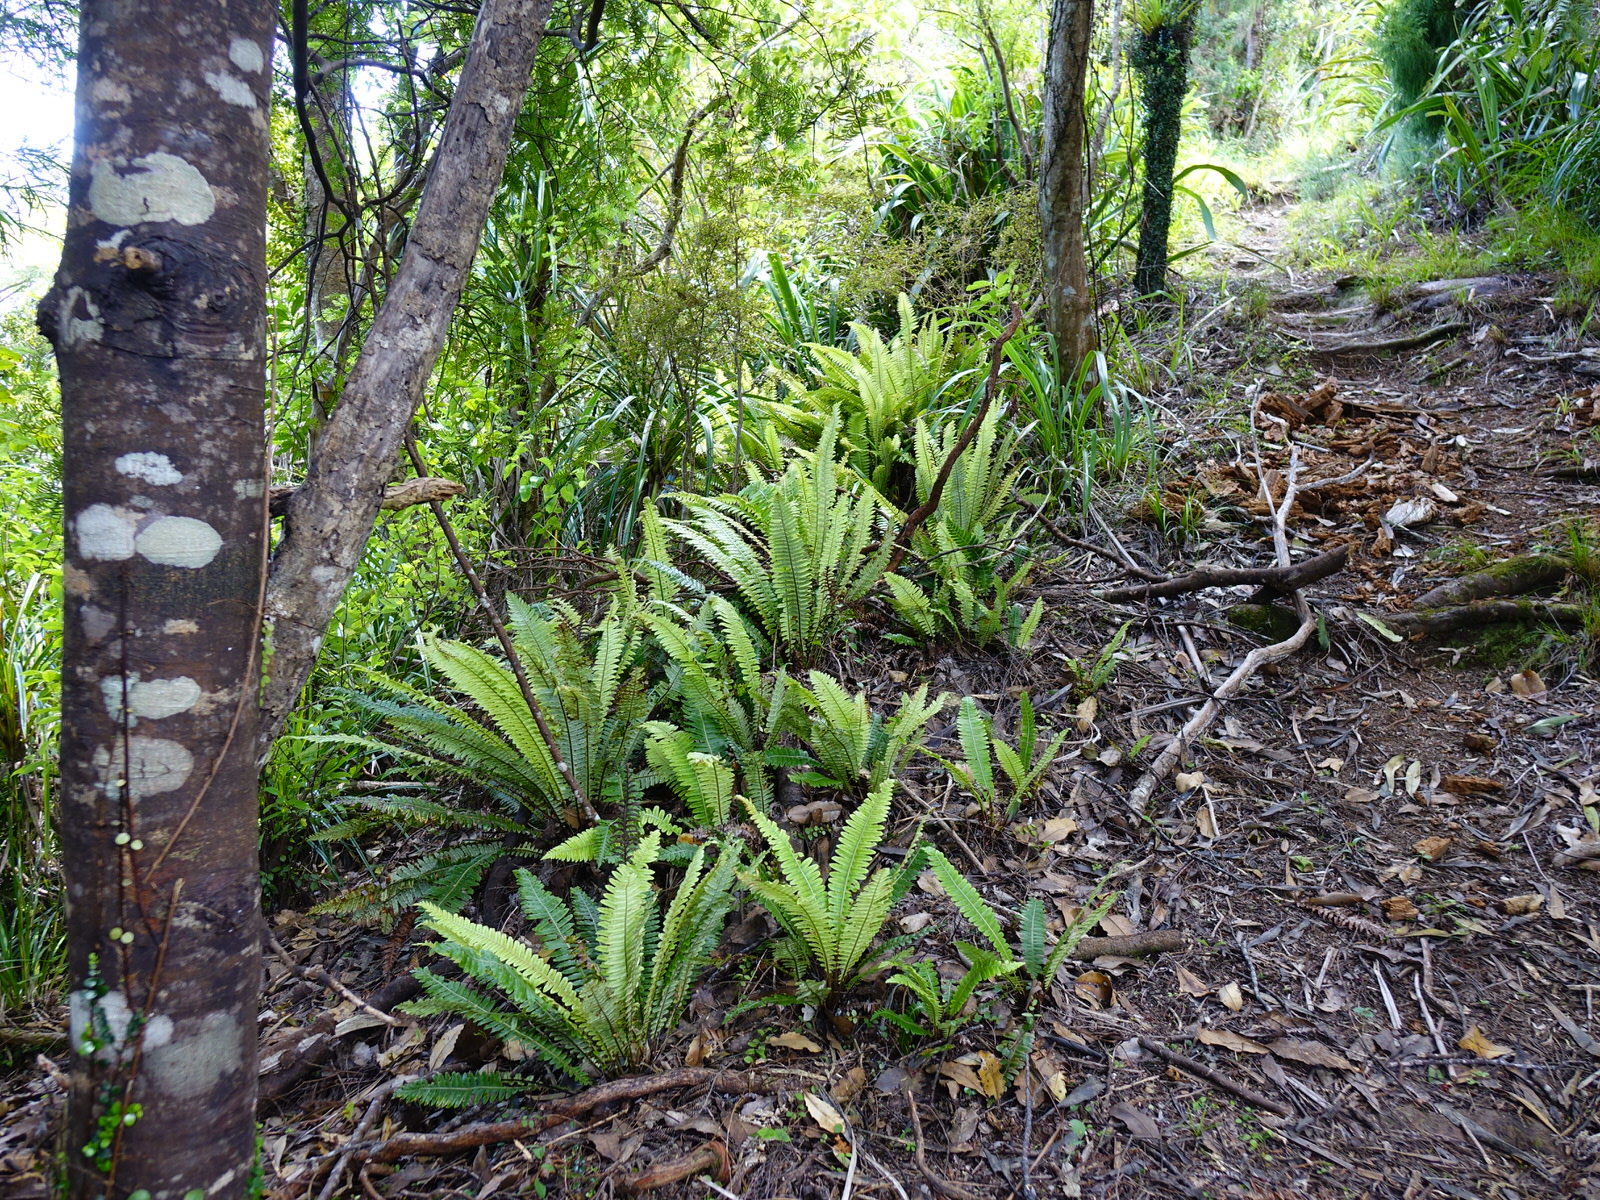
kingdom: Plantae
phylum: Tracheophyta
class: Polypodiopsida
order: Polypodiales
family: Blechnaceae
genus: Lomaria
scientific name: Lomaria discolor
